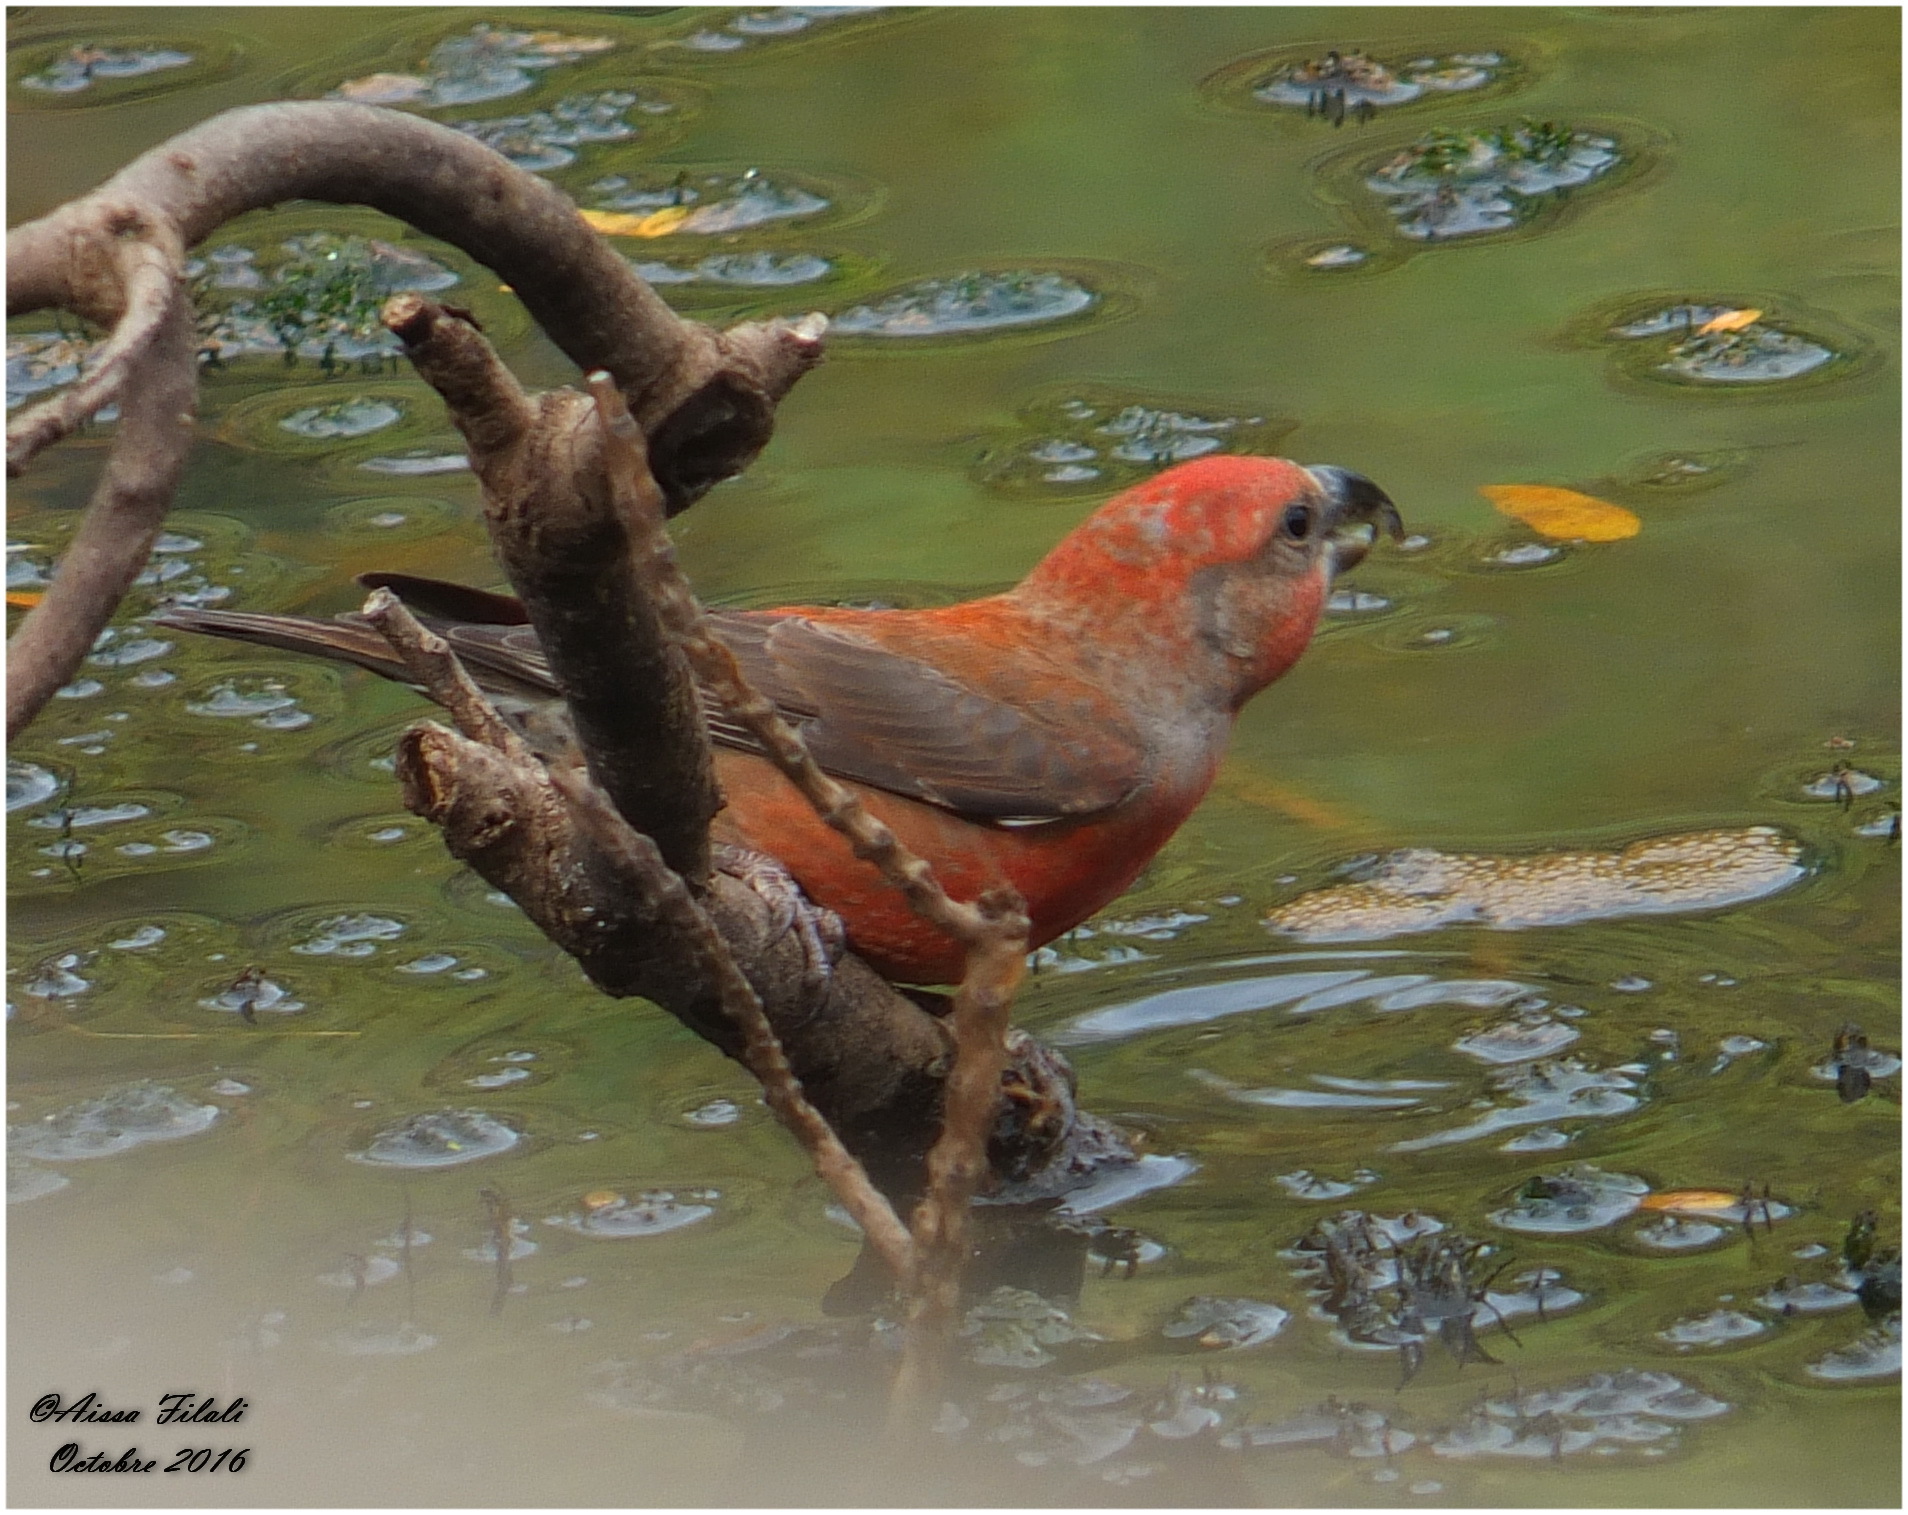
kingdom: Animalia
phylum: Chordata
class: Aves
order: Passeriformes
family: Fringillidae
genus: Loxia
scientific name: Loxia curvirostra
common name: Red crossbill
